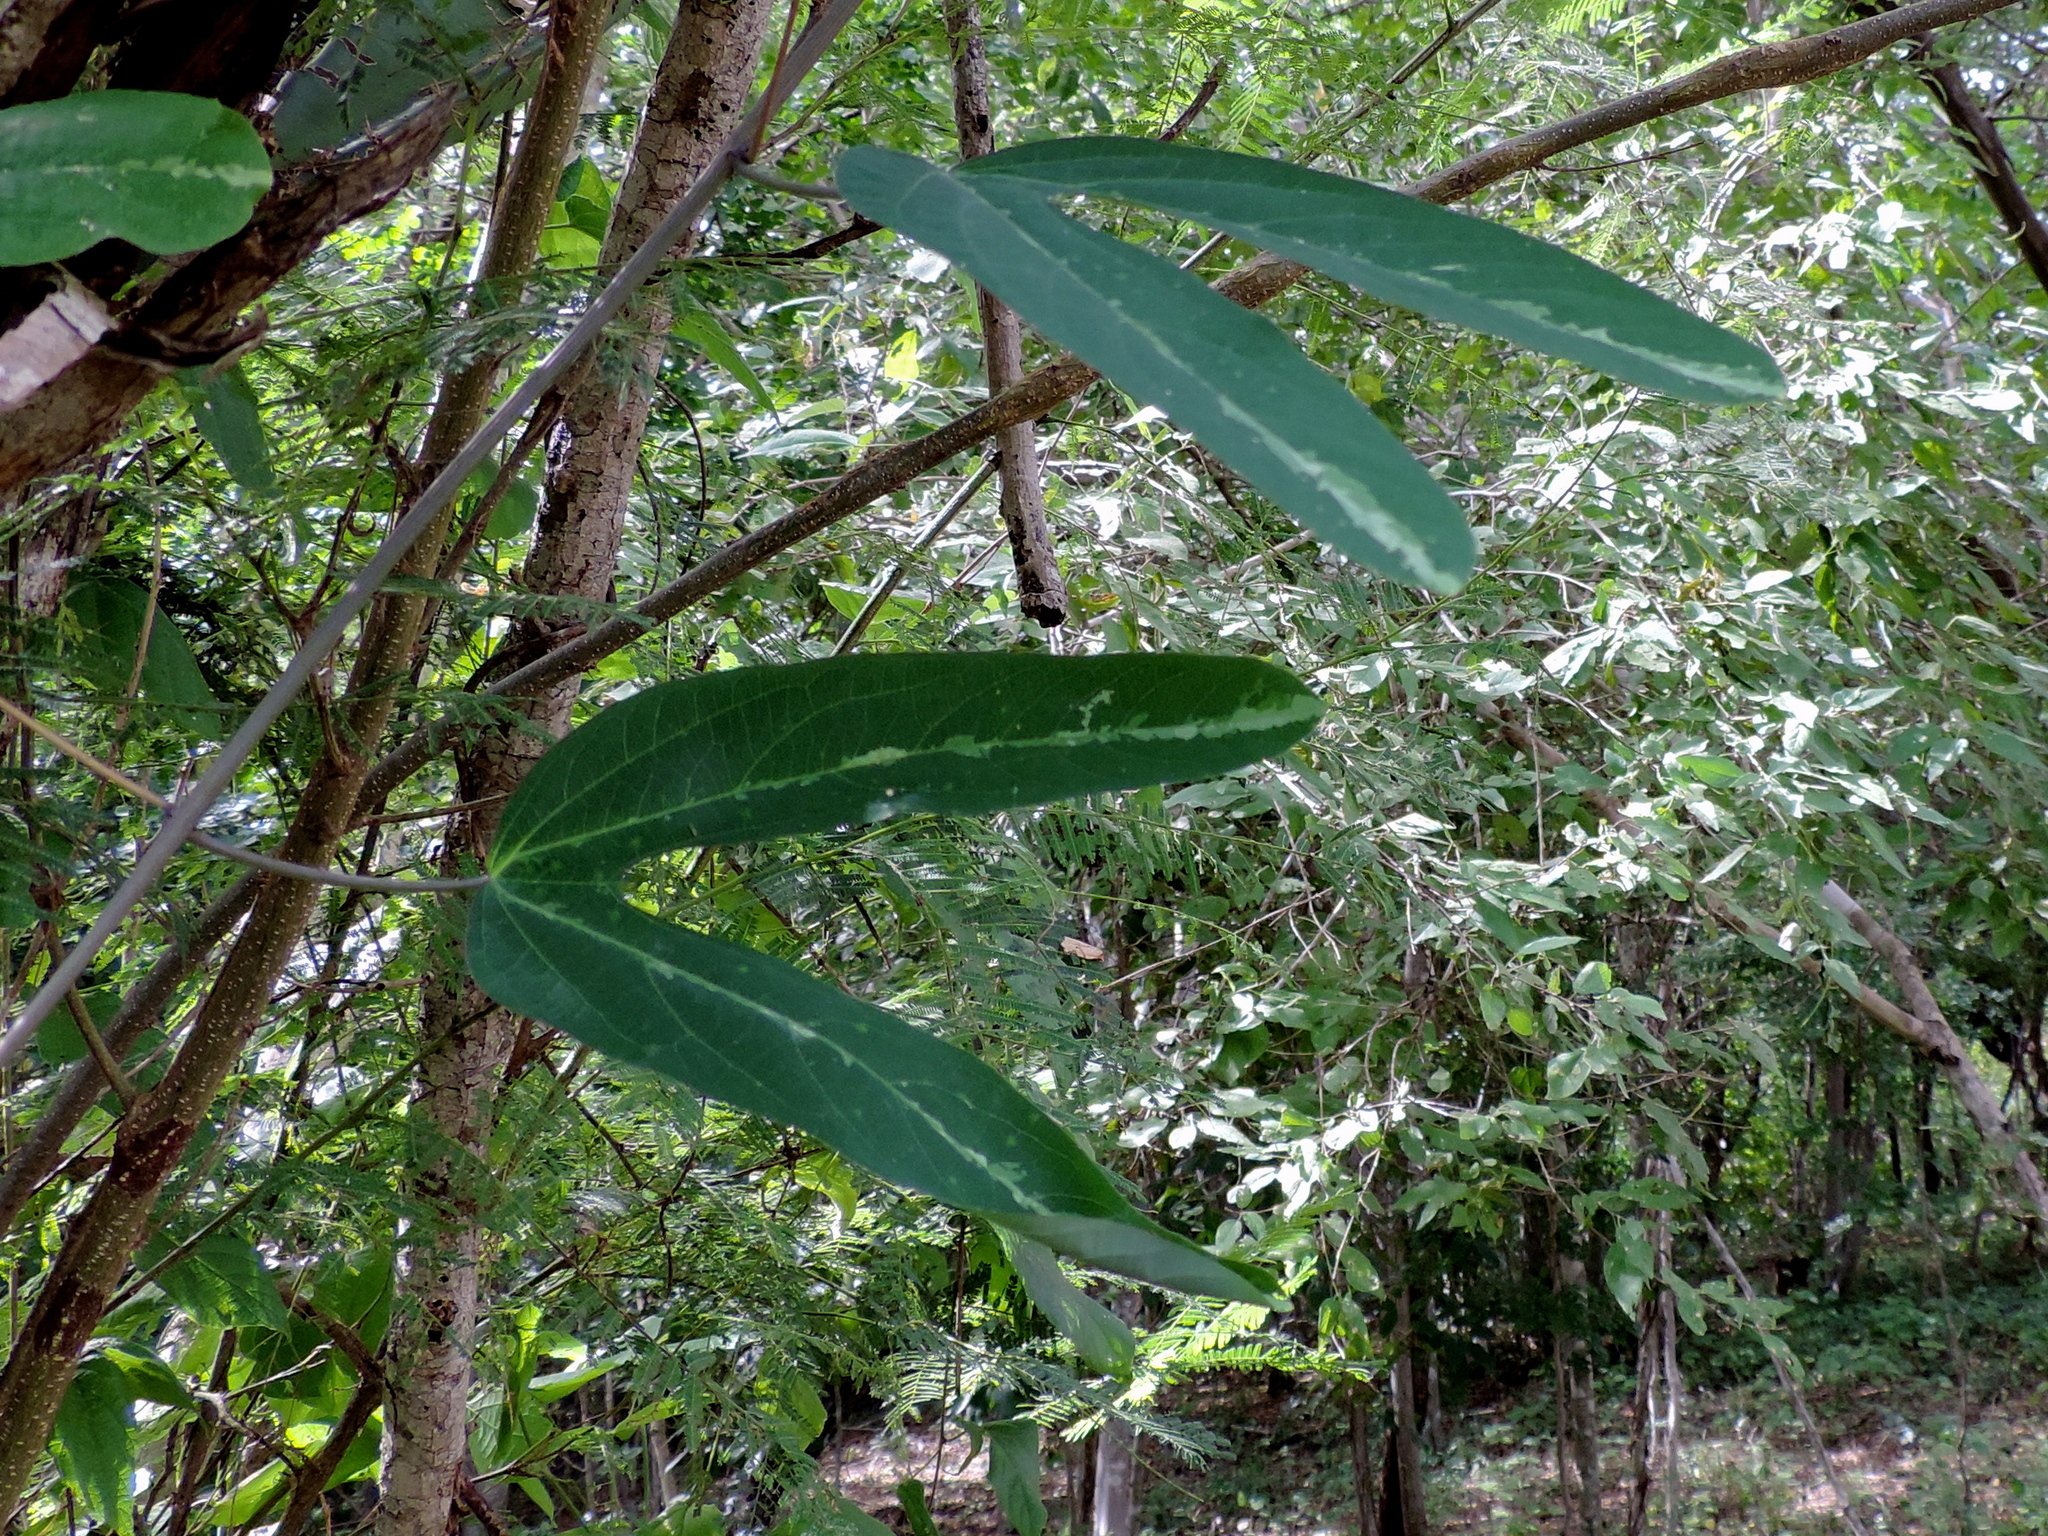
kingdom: Plantae
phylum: Tracheophyta
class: Magnoliopsida
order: Malpighiales
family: Passifloraceae
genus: Passiflora
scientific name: Passiflora mexicana
